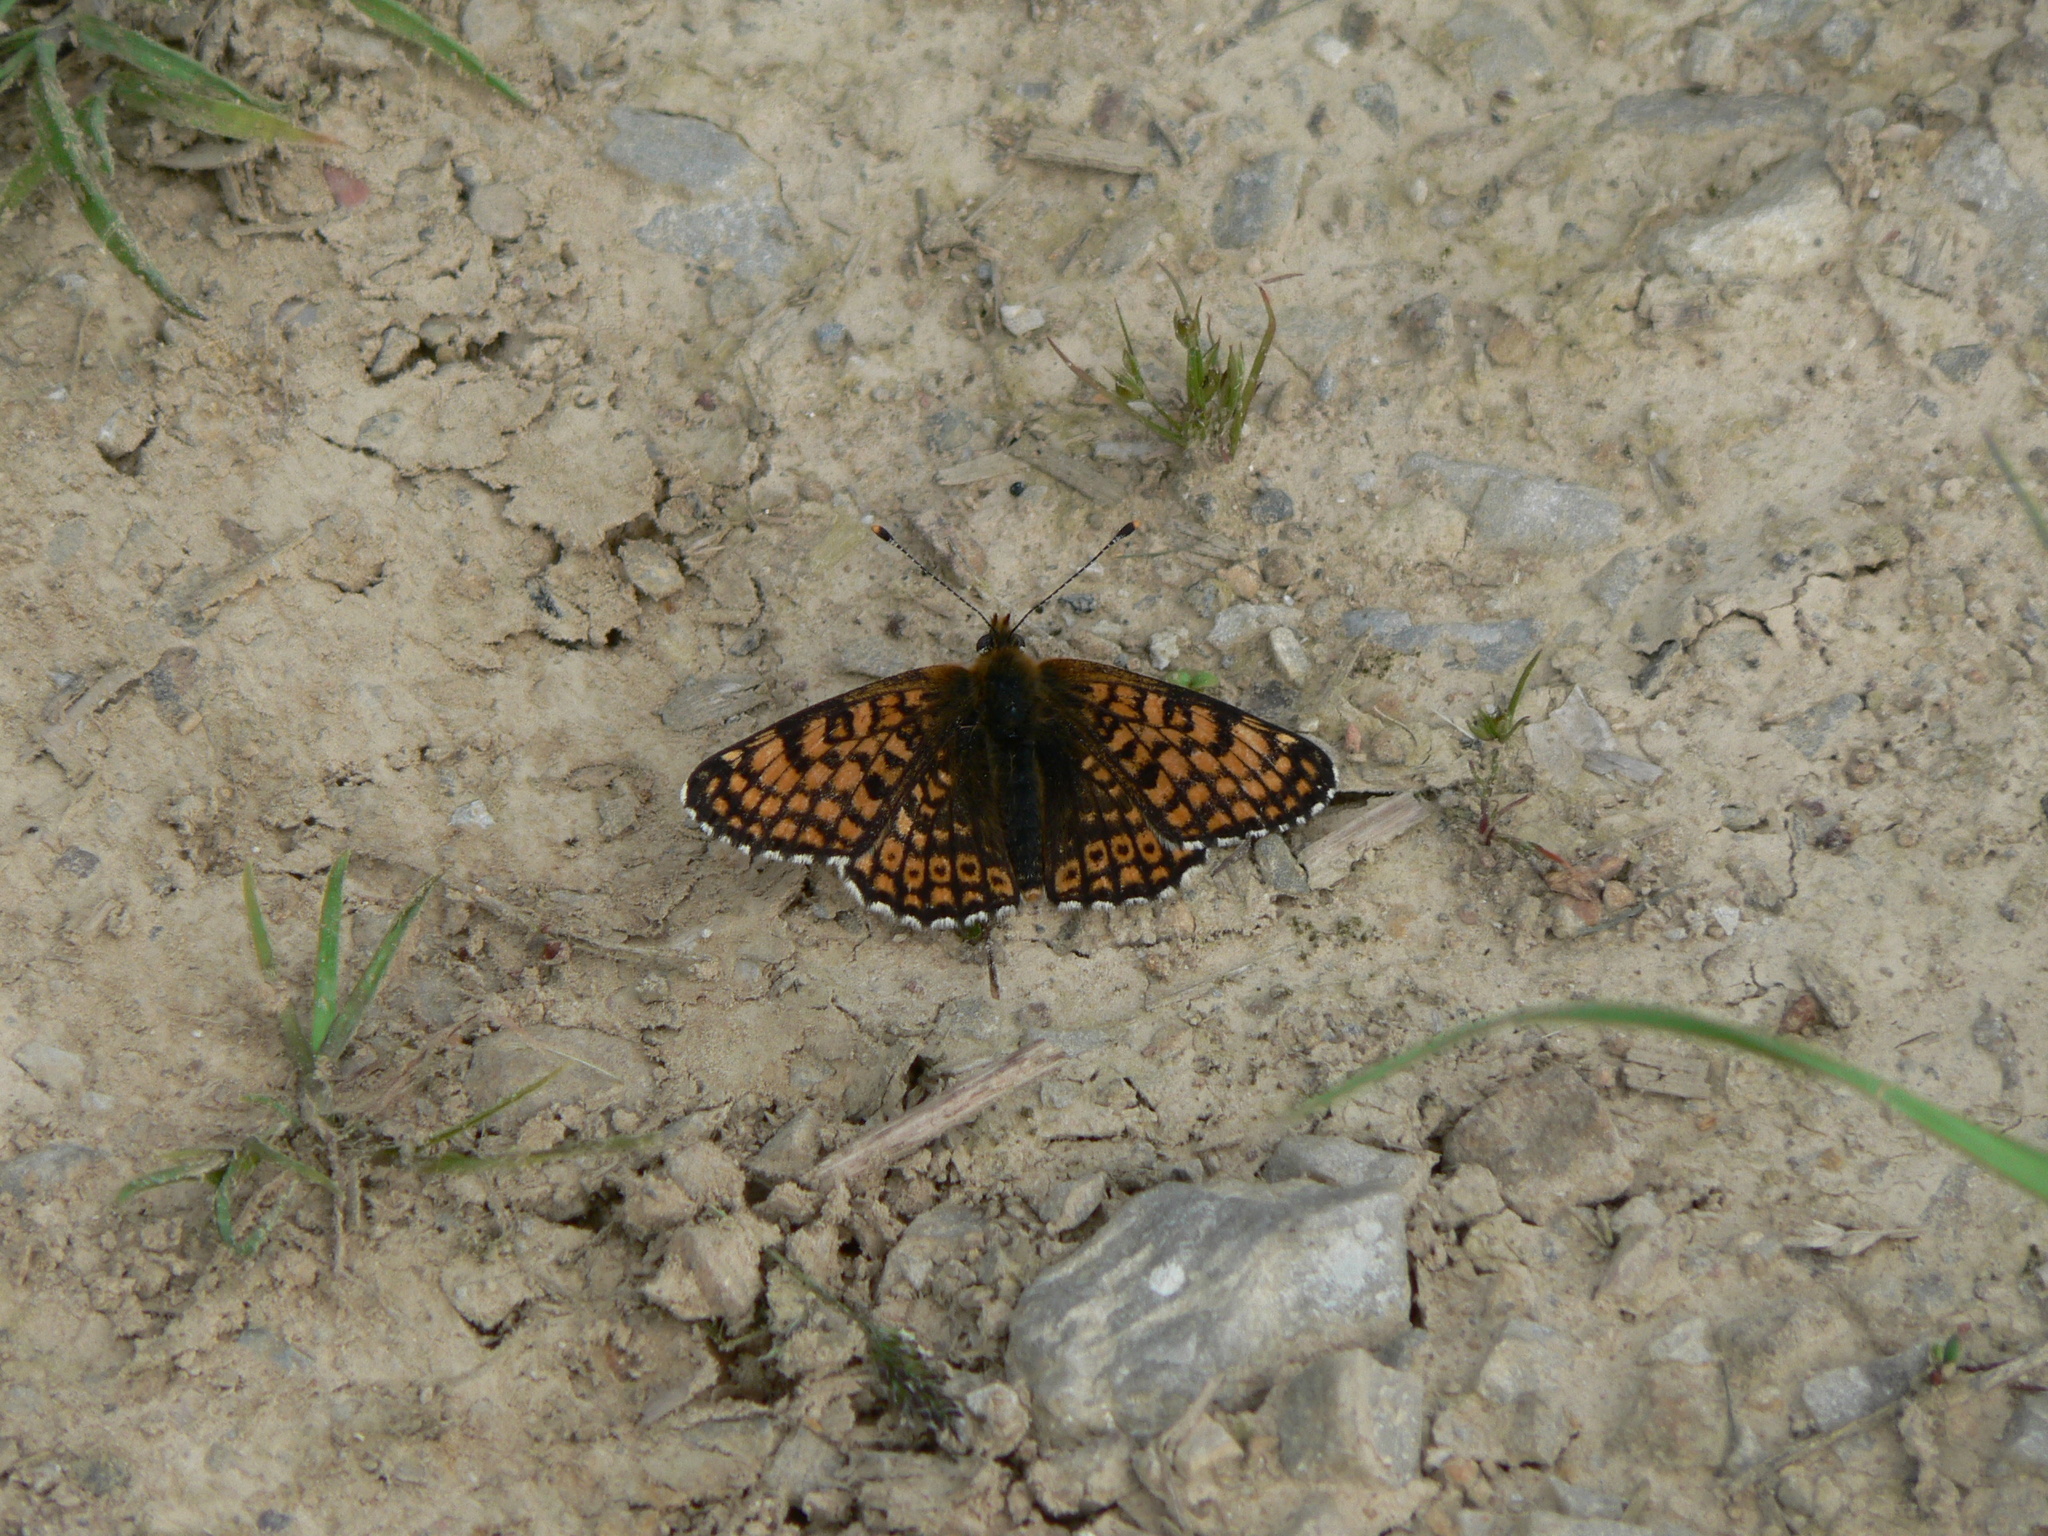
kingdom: Animalia
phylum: Arthropoda
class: Insecta
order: Lepidoptera
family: Nymphalidae
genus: Melitaea
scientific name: Melitaea cinxia
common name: Glanville fritillary
